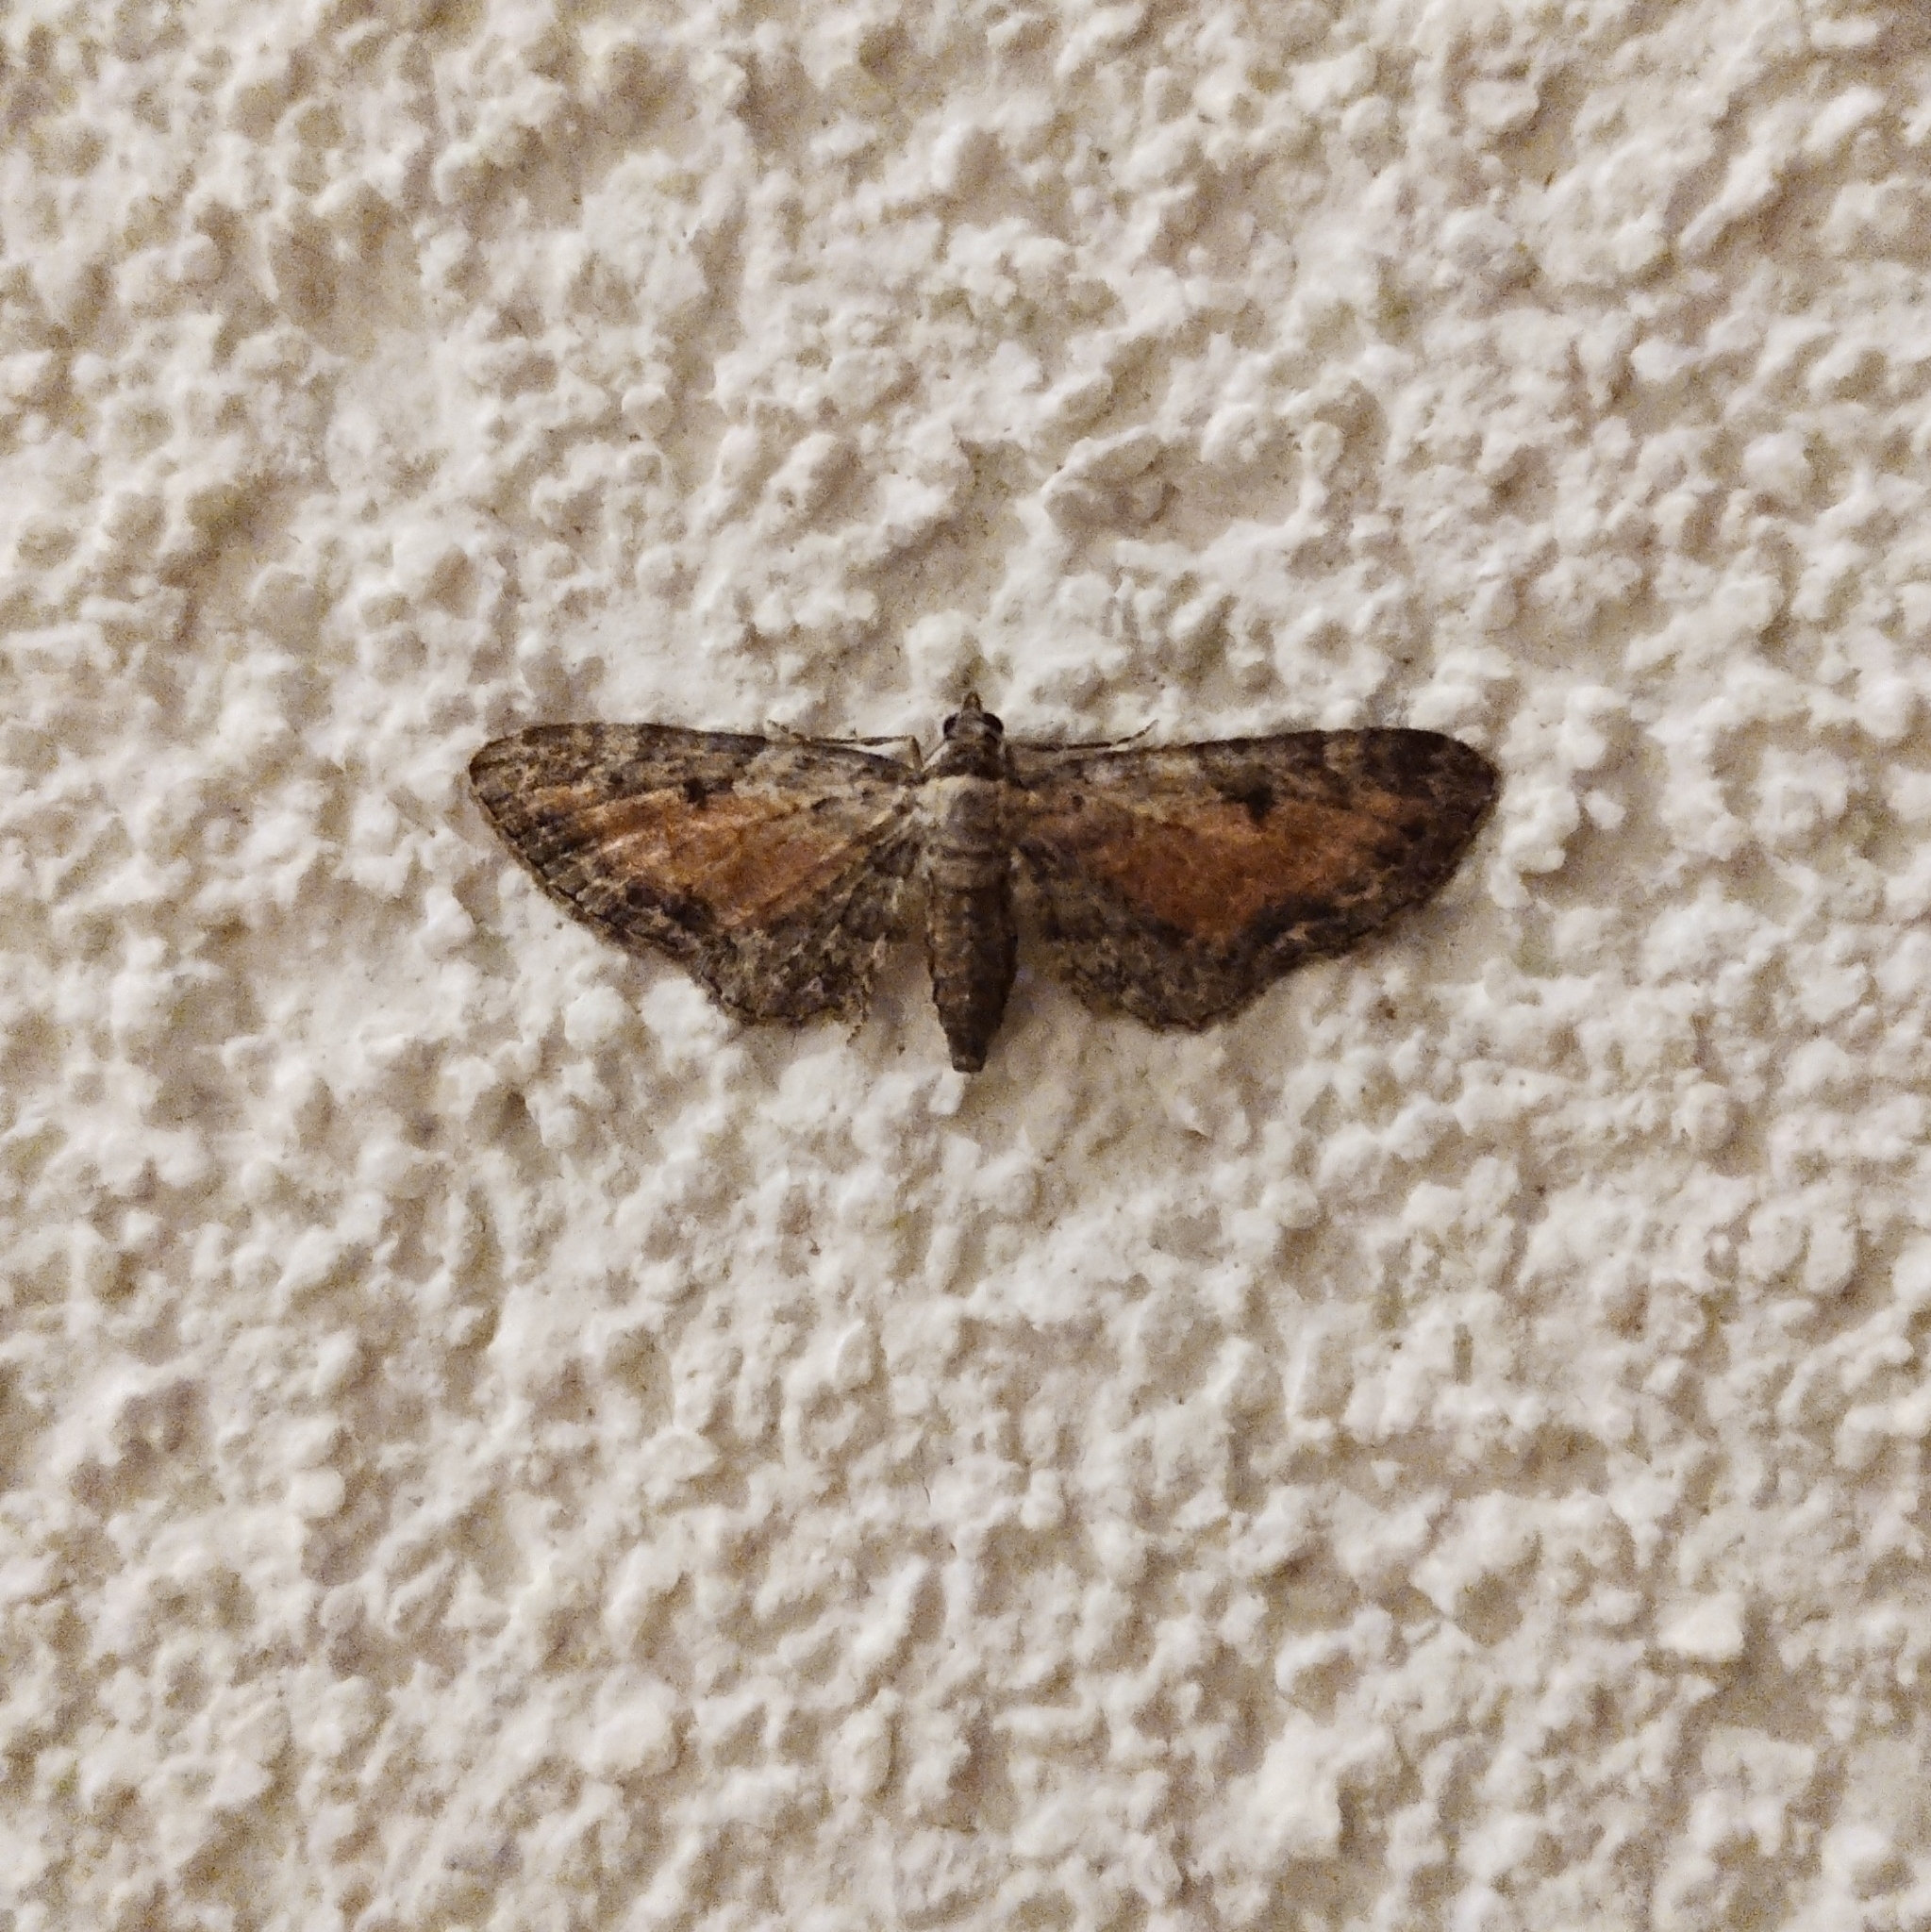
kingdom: Animalia
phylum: Arthropoda
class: Insecta
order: Lepidoptera
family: Geometridae
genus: Eupithecia
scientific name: Eupithecia icterata
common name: Tawny speckled pug
